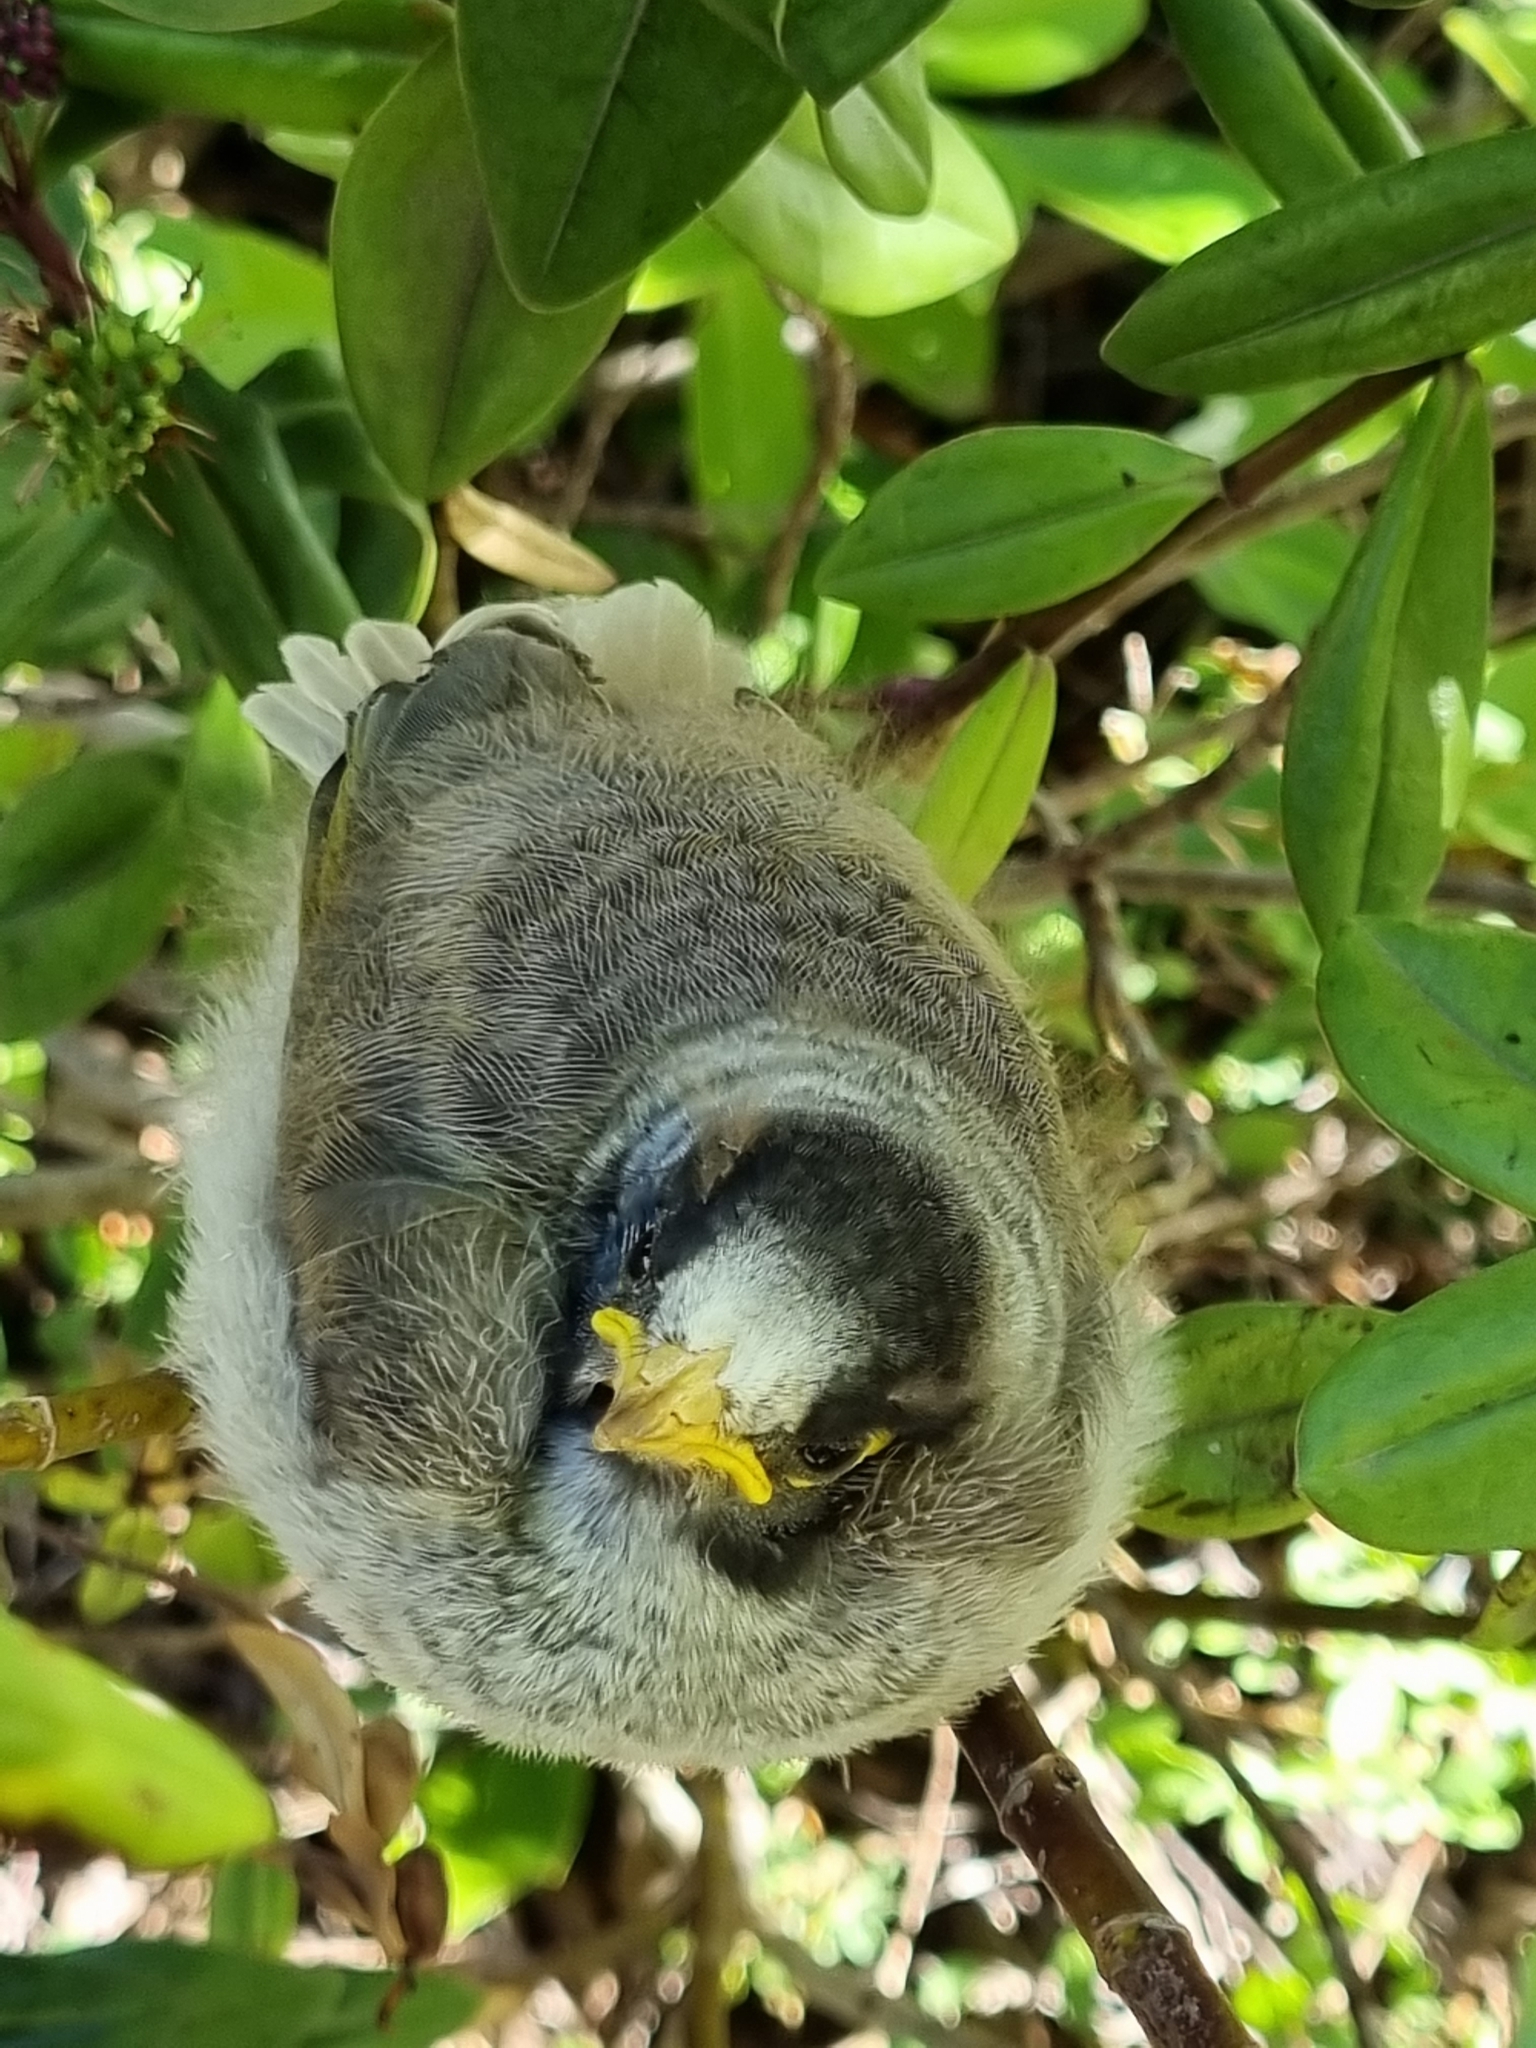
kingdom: Animalia
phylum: Chordata
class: Aves
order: Passeriformes
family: Meliphagidae
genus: Manorina
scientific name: Manorina melanocephala
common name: Noisy miner
